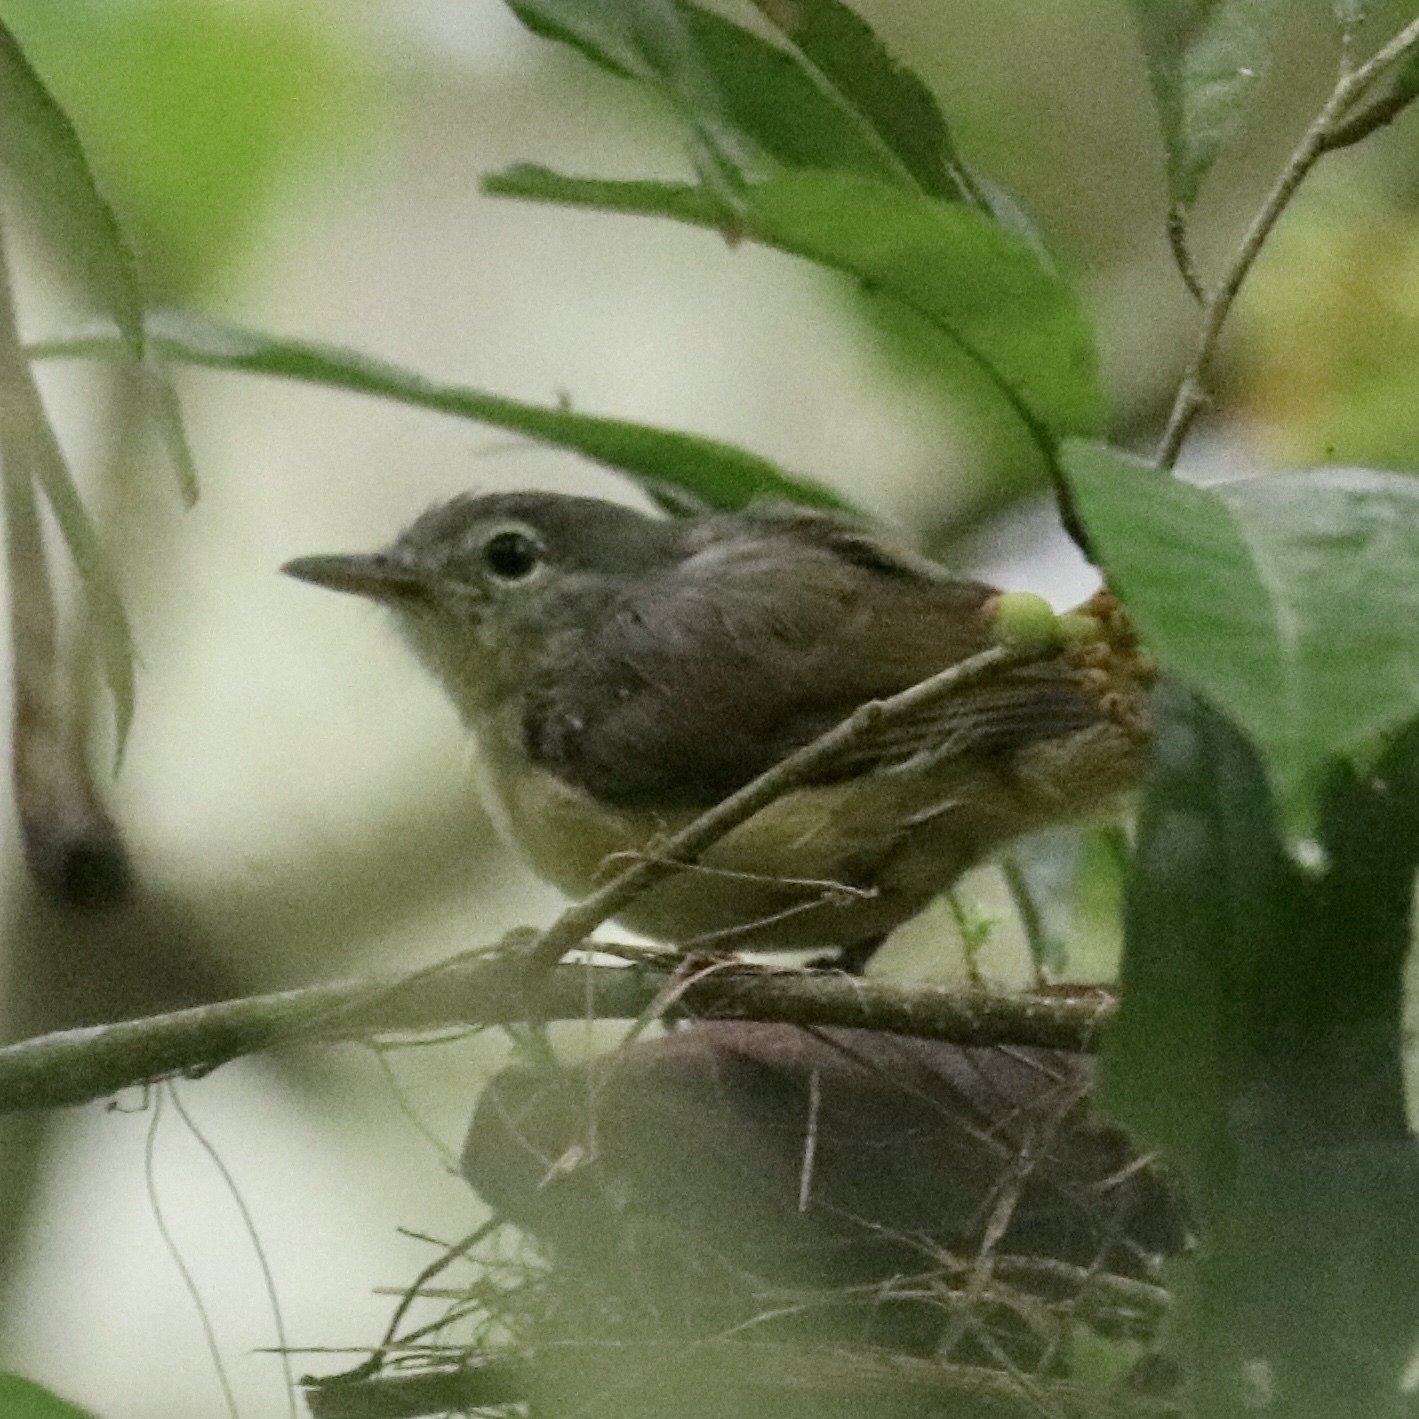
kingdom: Animalia
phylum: Chordata
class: Aves
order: Passeriformes
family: Thamnophilidae
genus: Myrmotherula
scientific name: Myrmotherula axillaris
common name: White-flanked antwren
